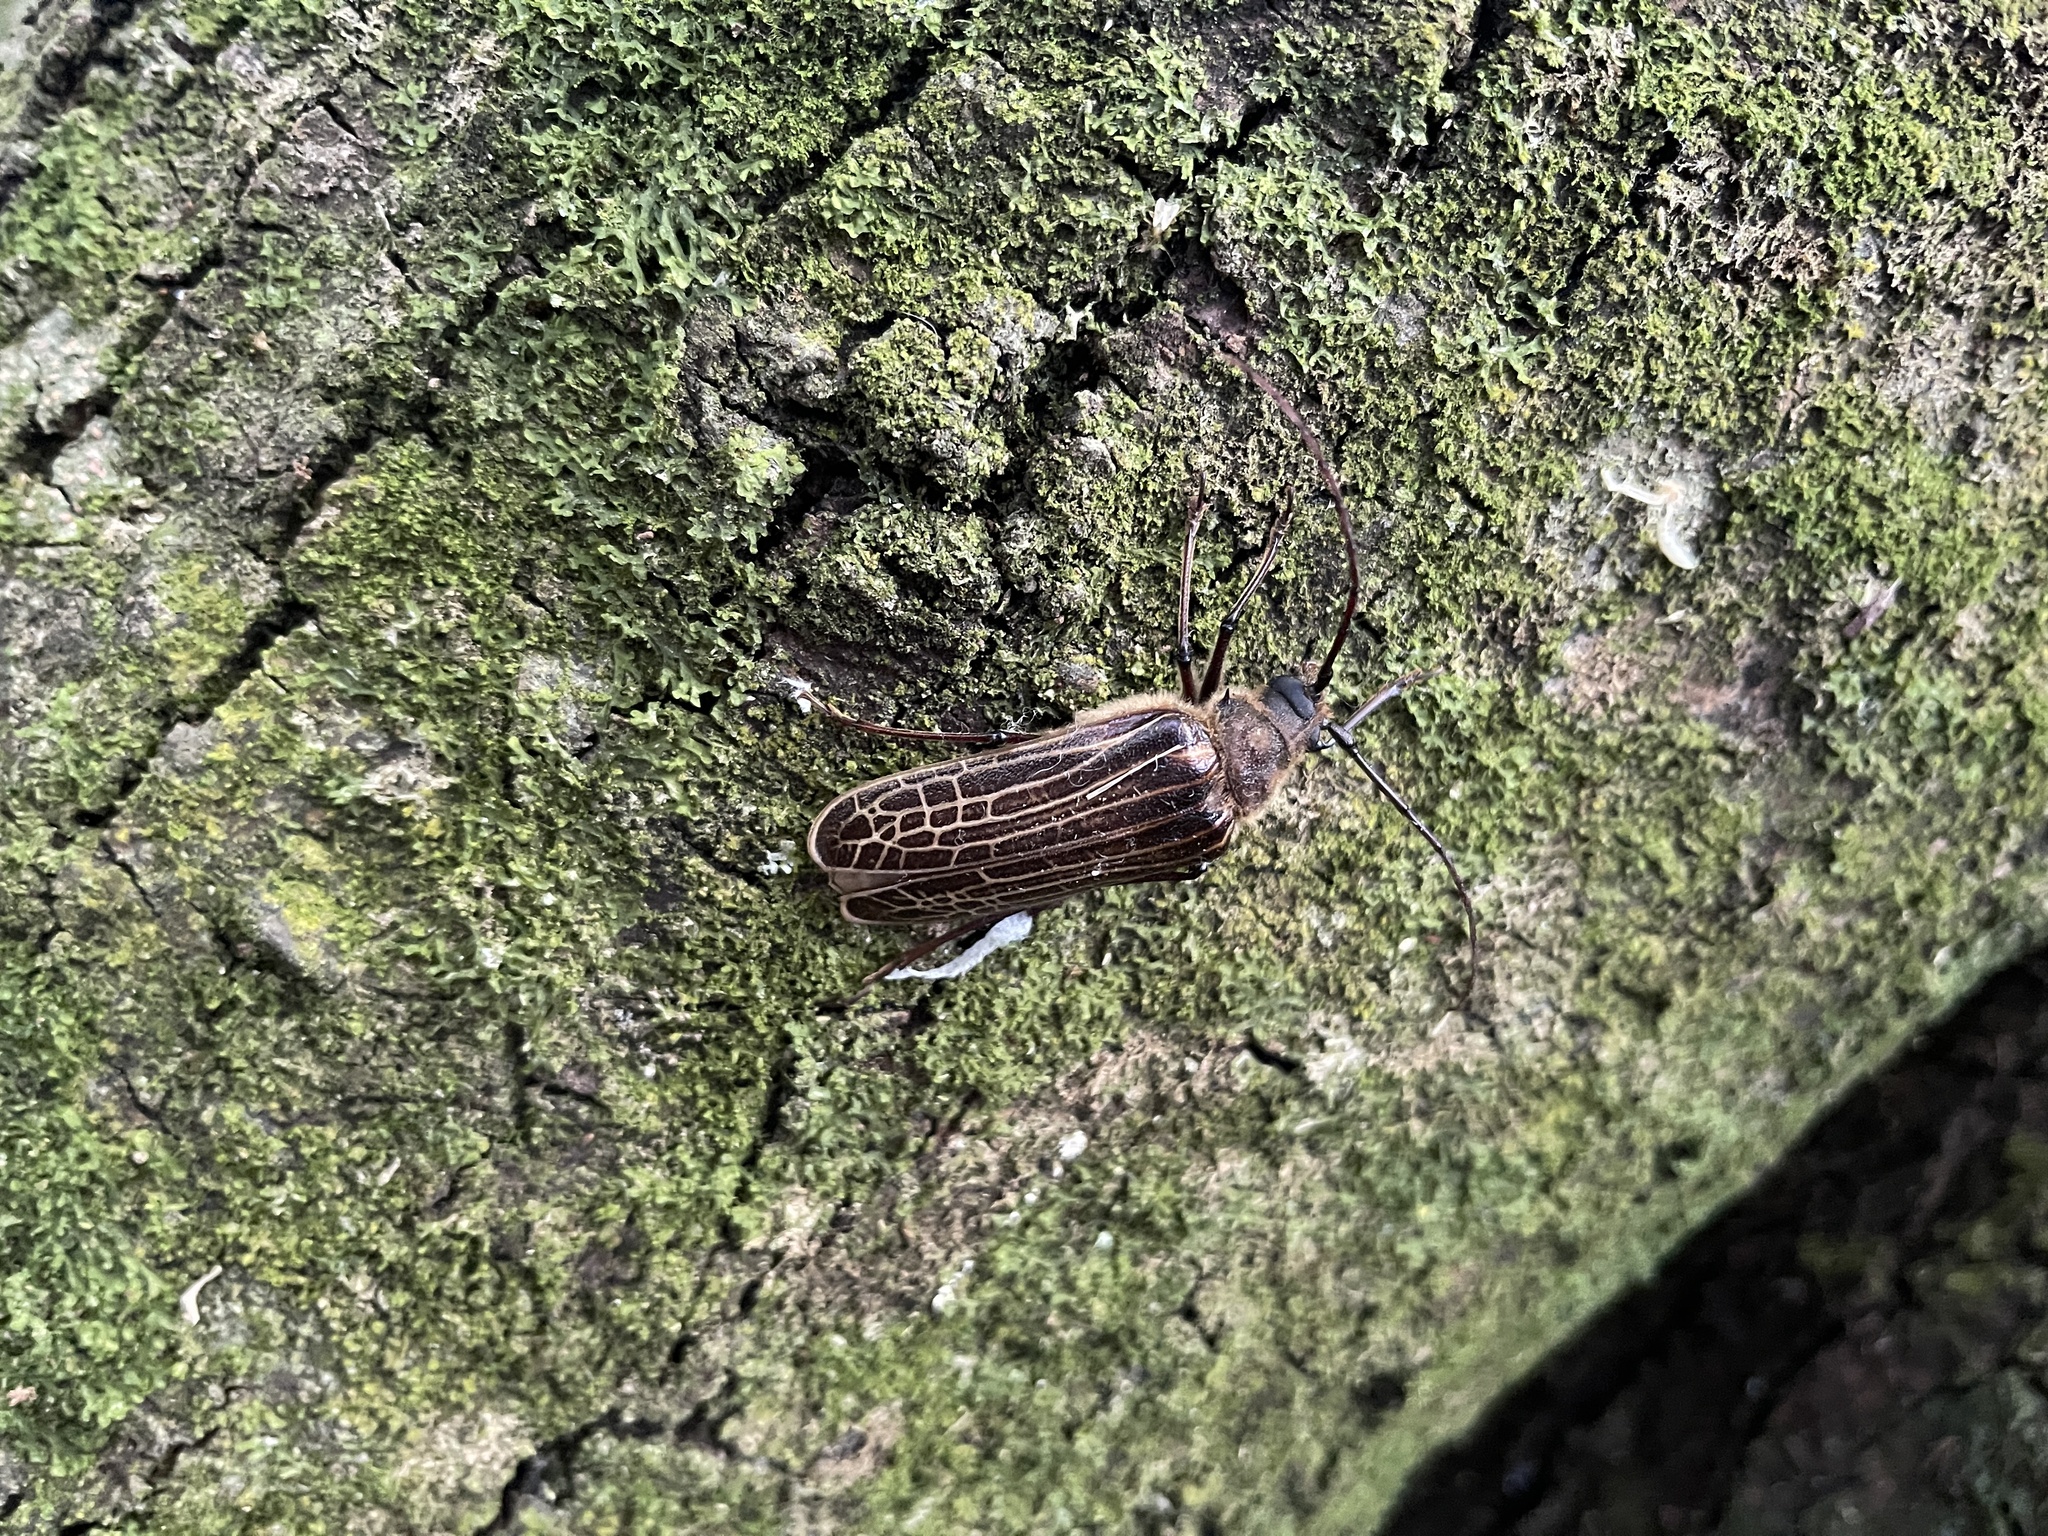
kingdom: Animalia
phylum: Arthropoda
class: Insecta
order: Coleoptera
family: Cerambycidae
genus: Prionoplus
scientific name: Prionoplus reticularis
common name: Huhu beetle
